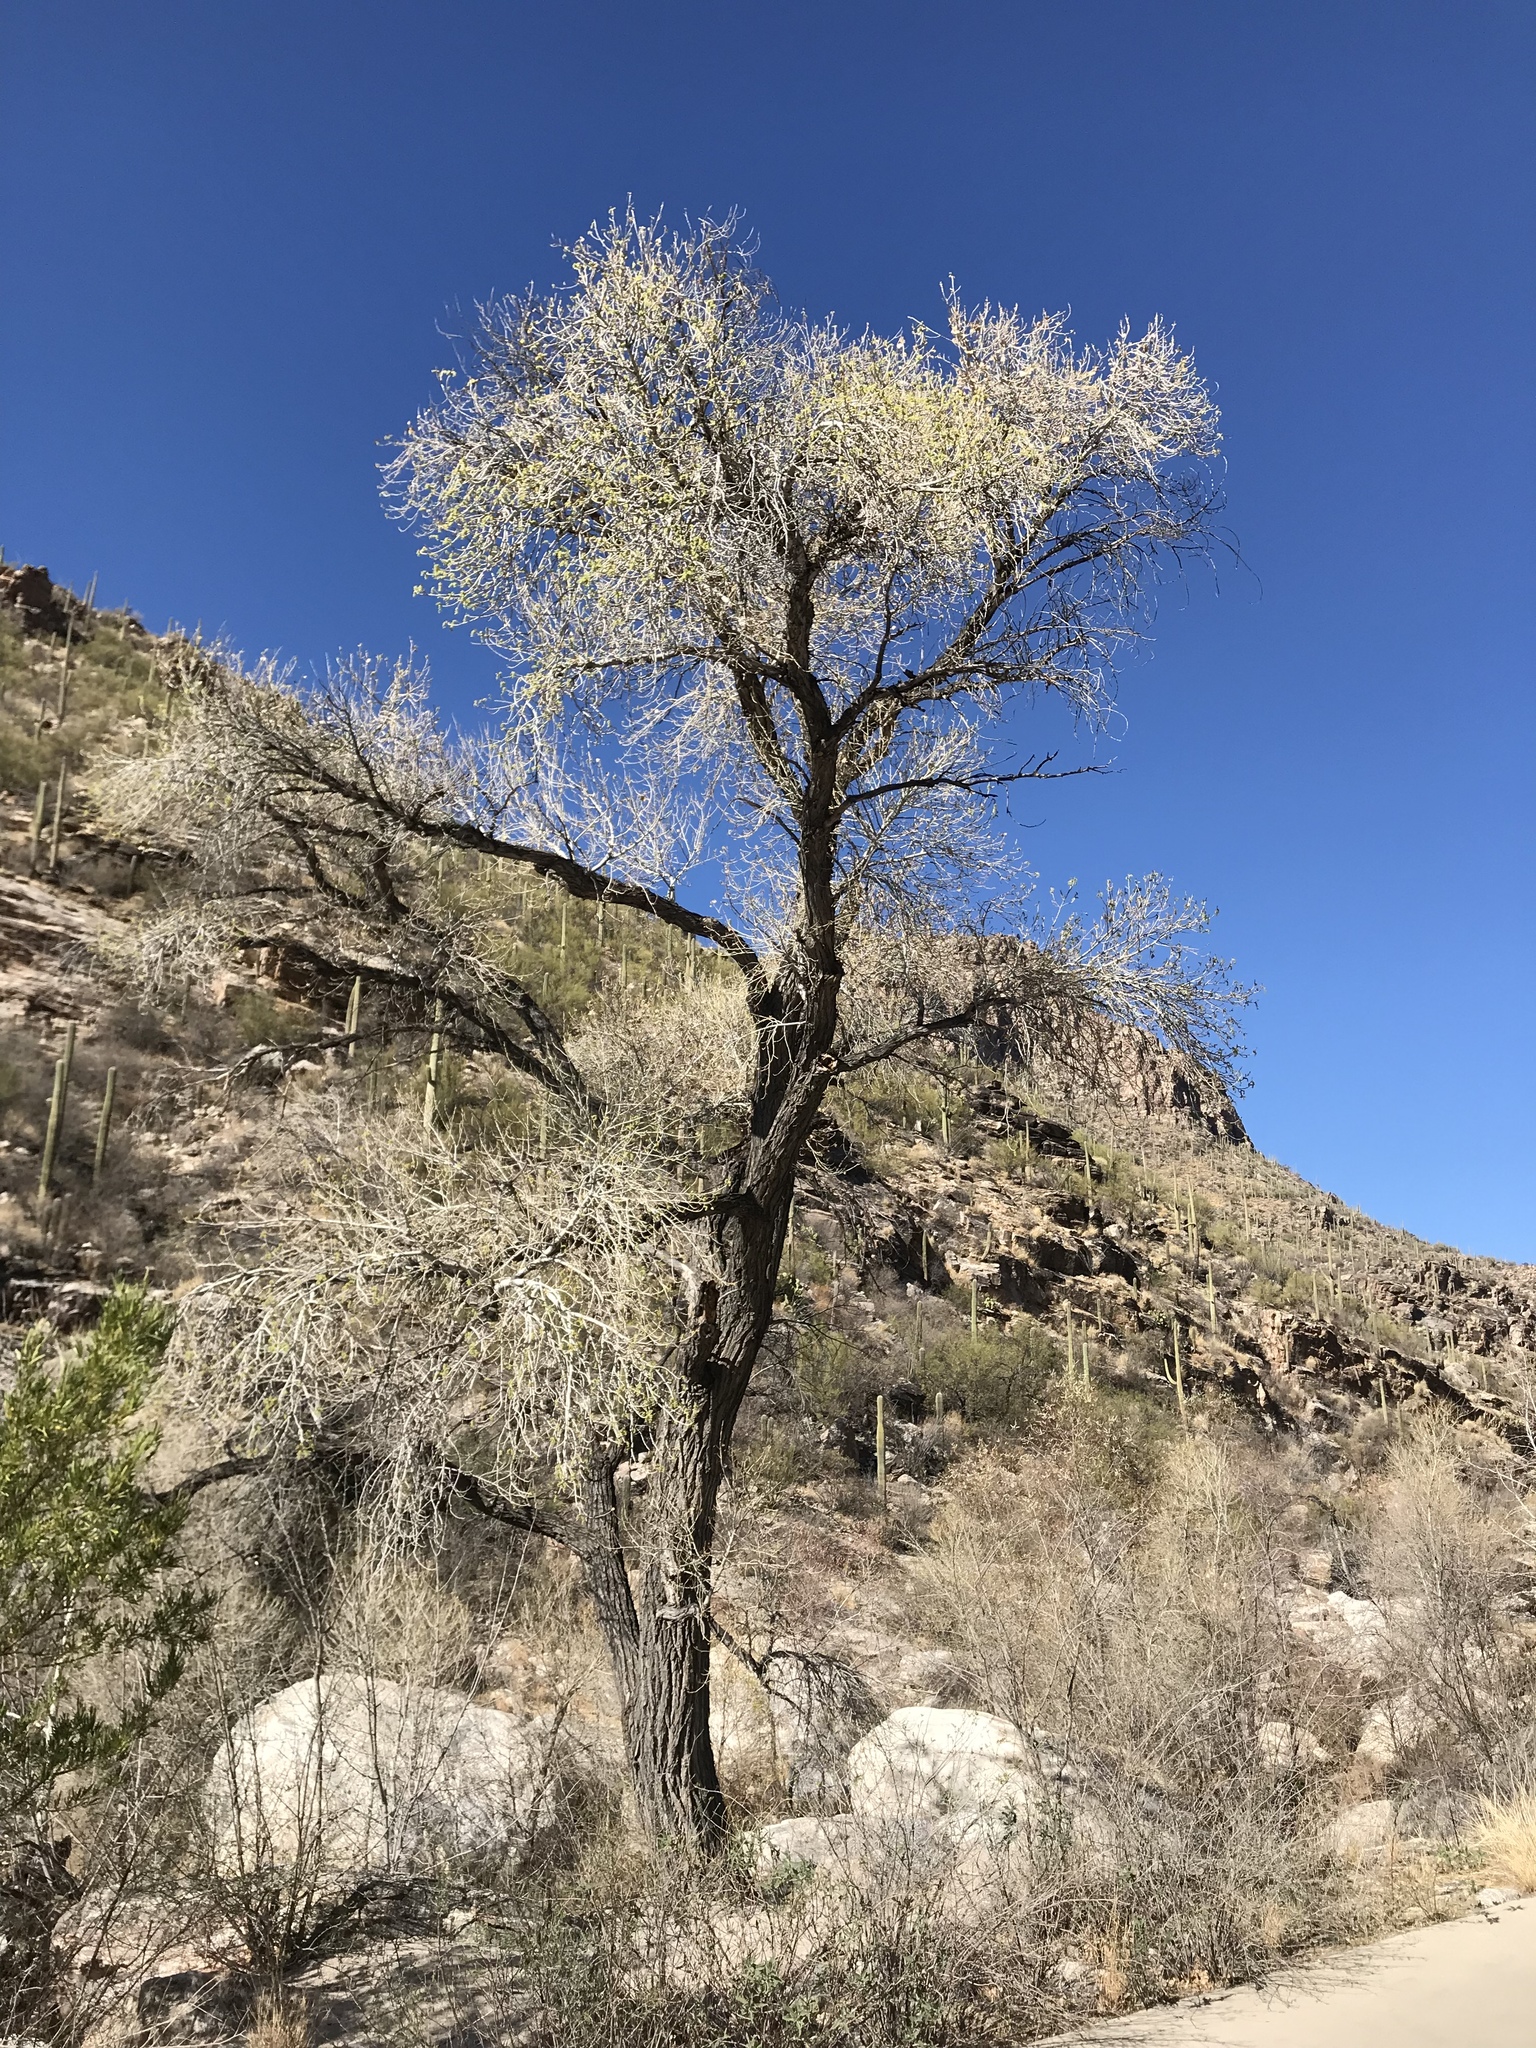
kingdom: Plantae
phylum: Tracheophyta
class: Magnoliopsida
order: Malpighiales
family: Salicaceae
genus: Populus
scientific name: Populus fremontii
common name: Fremont's cottonwood
